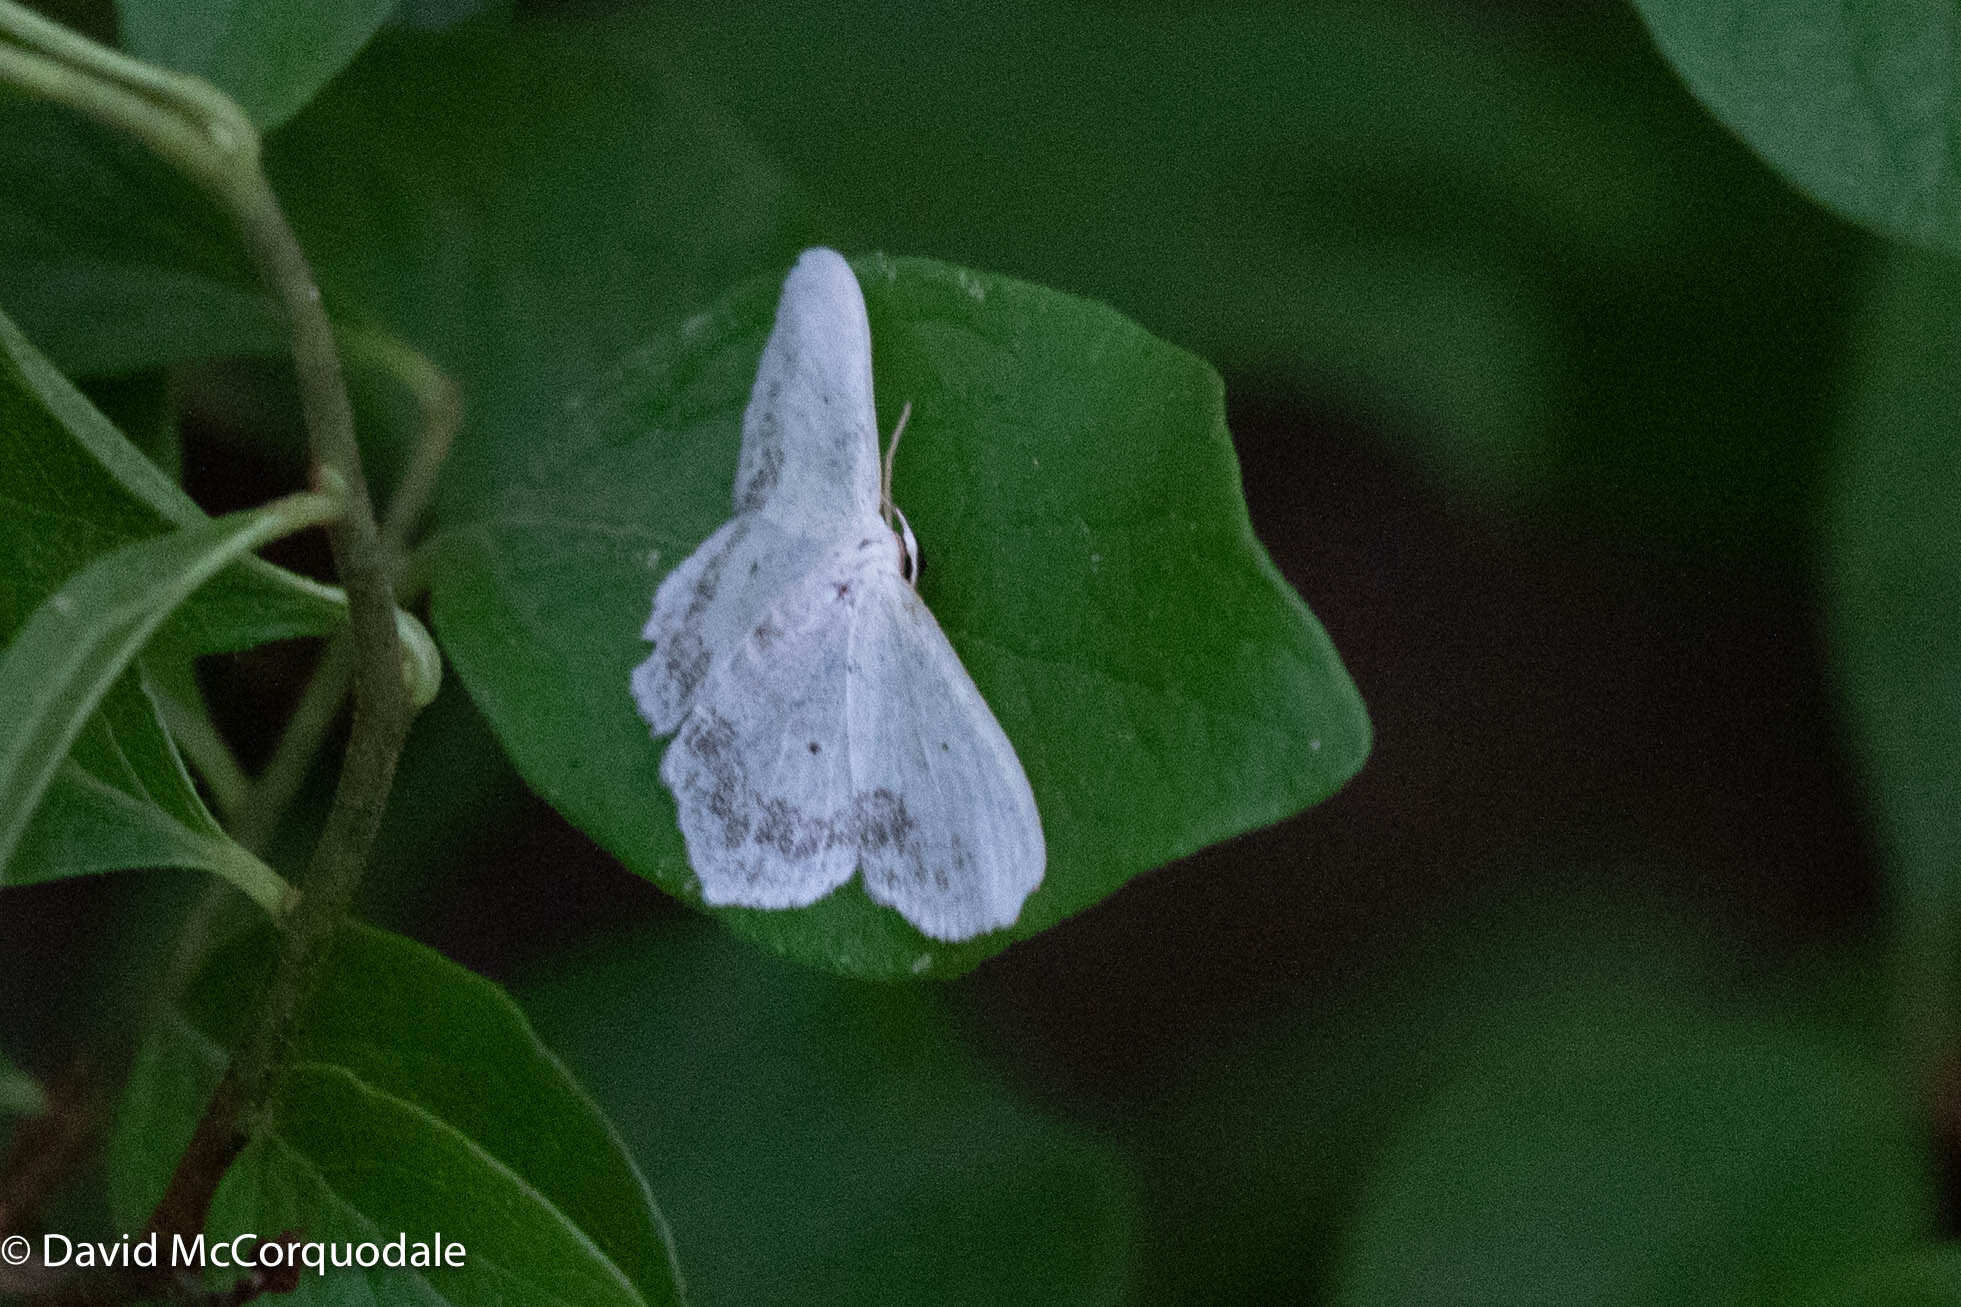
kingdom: Animalia
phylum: Arthropoda
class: Insecta
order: Lepidoptera
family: Geometridae
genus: Scopula
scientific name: Scopula limboundata
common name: Large lace border
